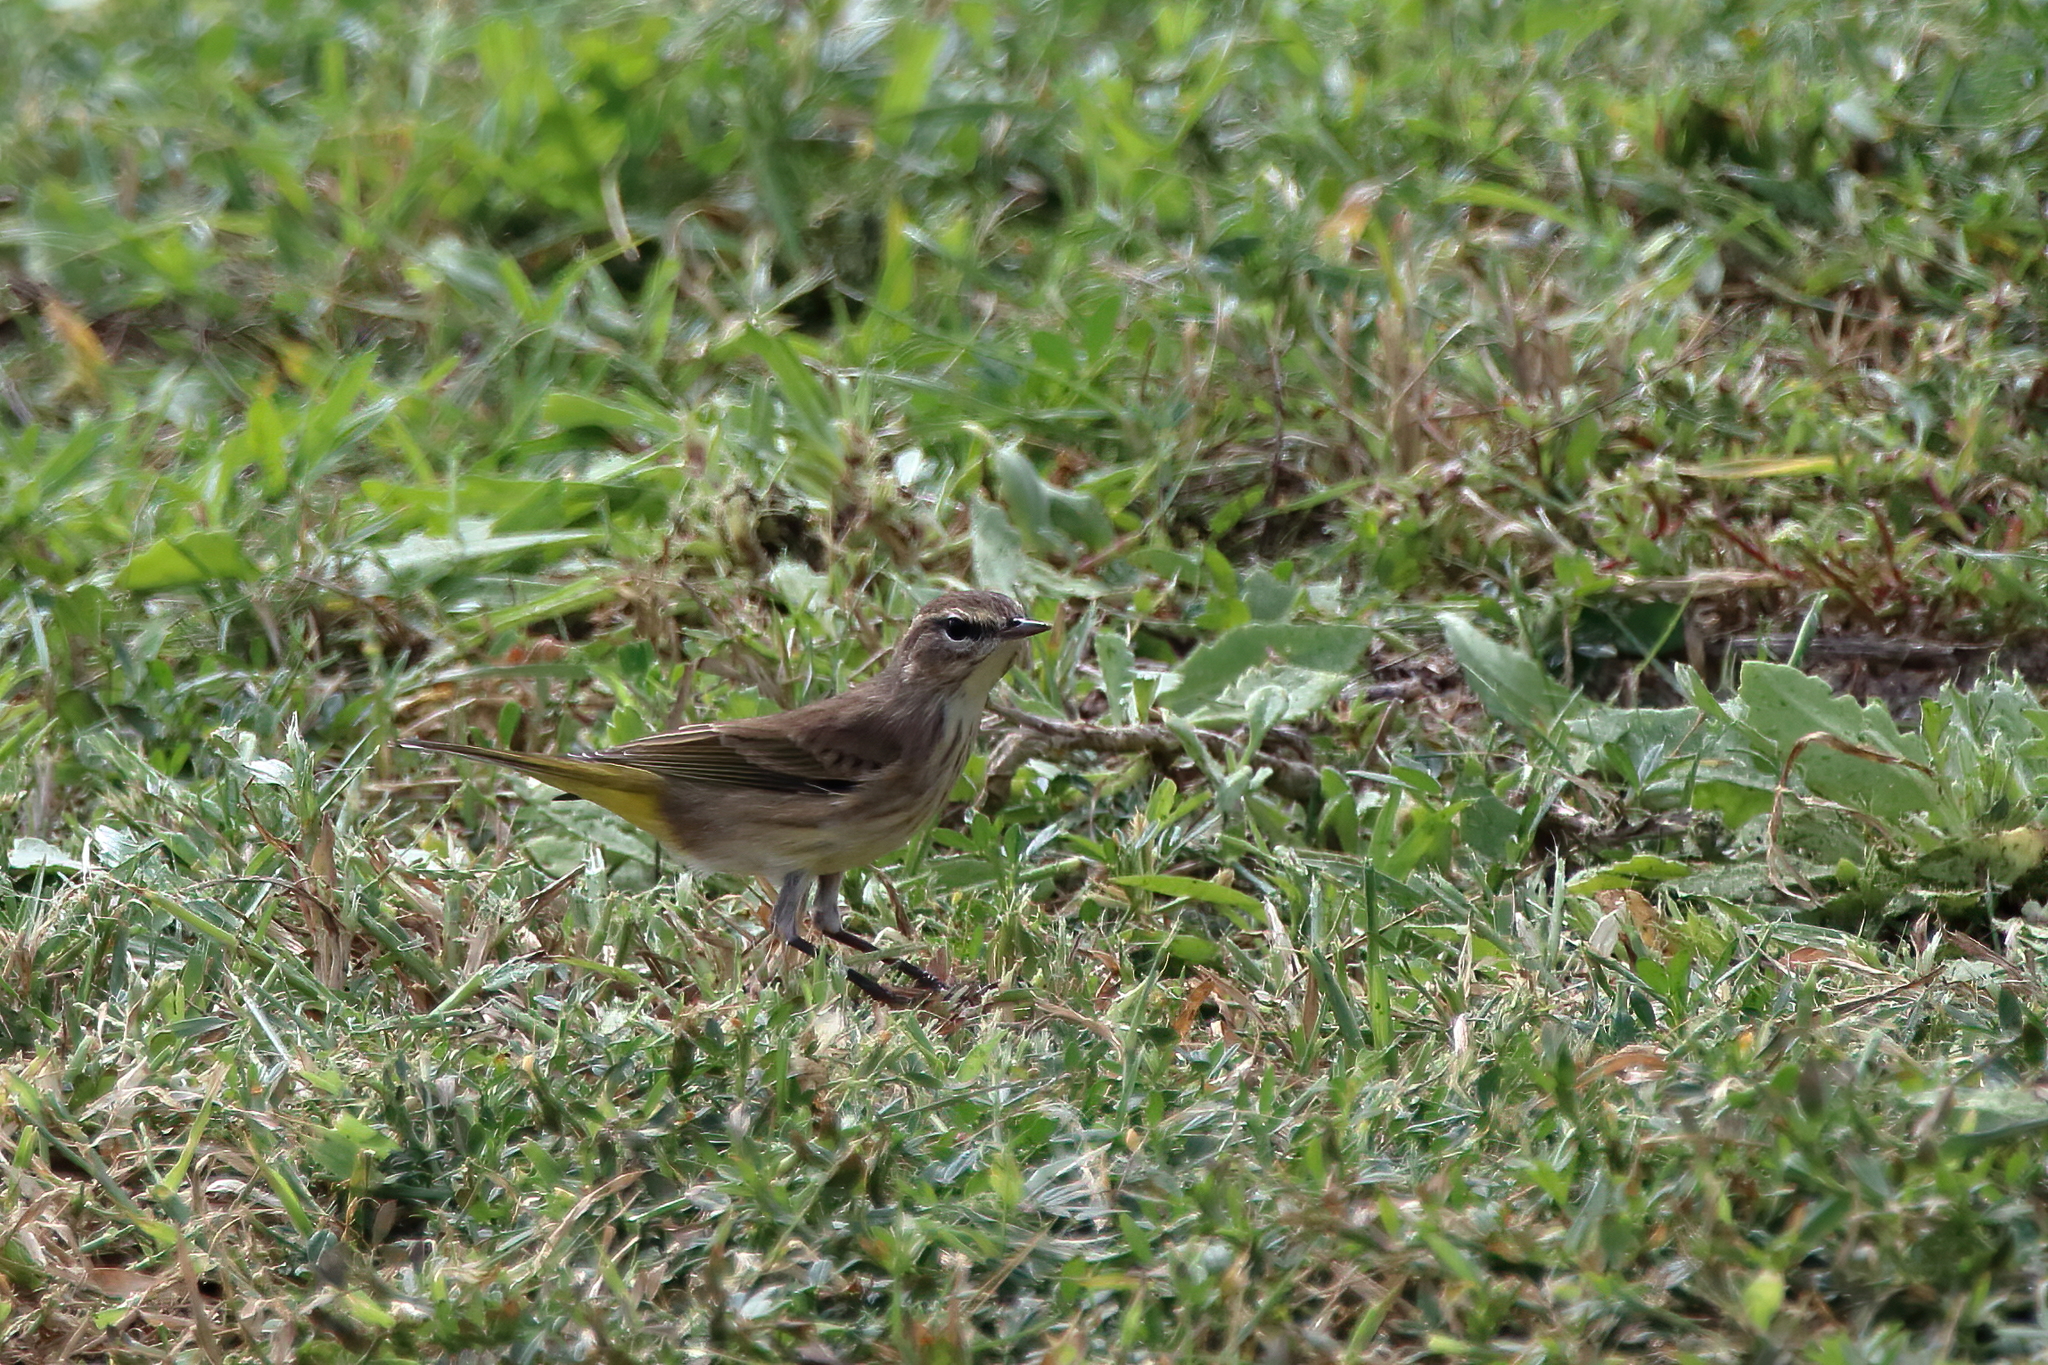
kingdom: Animalia
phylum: Chordata
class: Aves
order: Passeriformes
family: Parulidae
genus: Setophaga
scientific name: Setophaga palmarum
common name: Palm warbler
